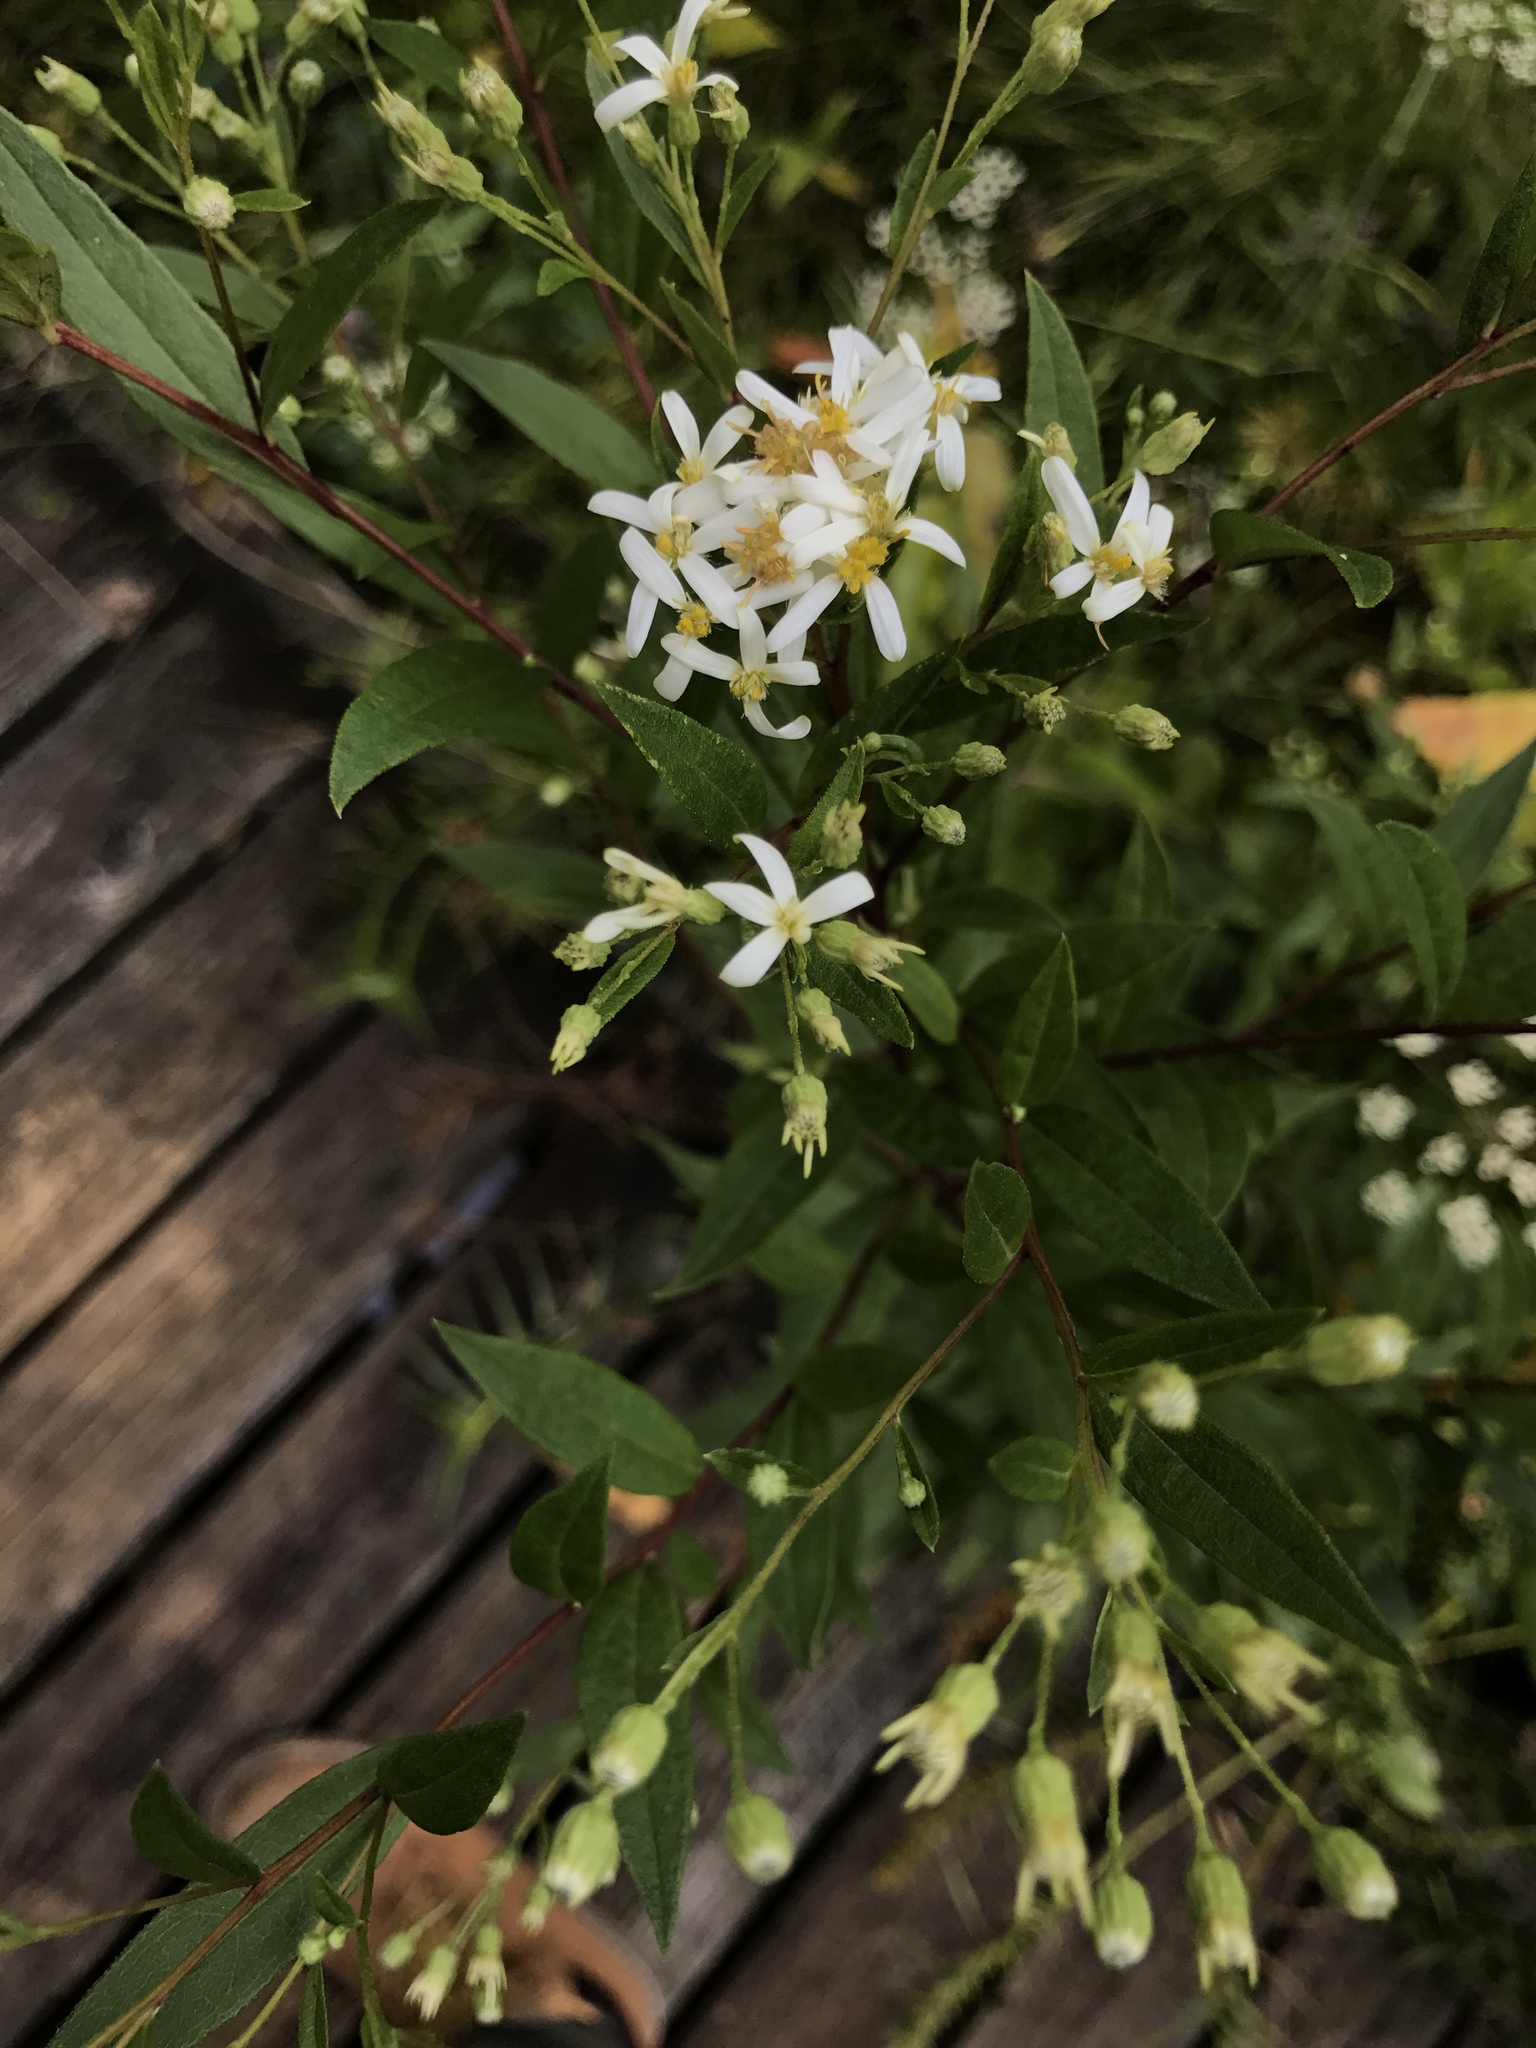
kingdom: Plantae
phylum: Tracheophyta
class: Magnoliopsida
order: Asterales
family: Asteraceae
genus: Doellingeria
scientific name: Doellingeria umbellata
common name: Flat-top white aster
